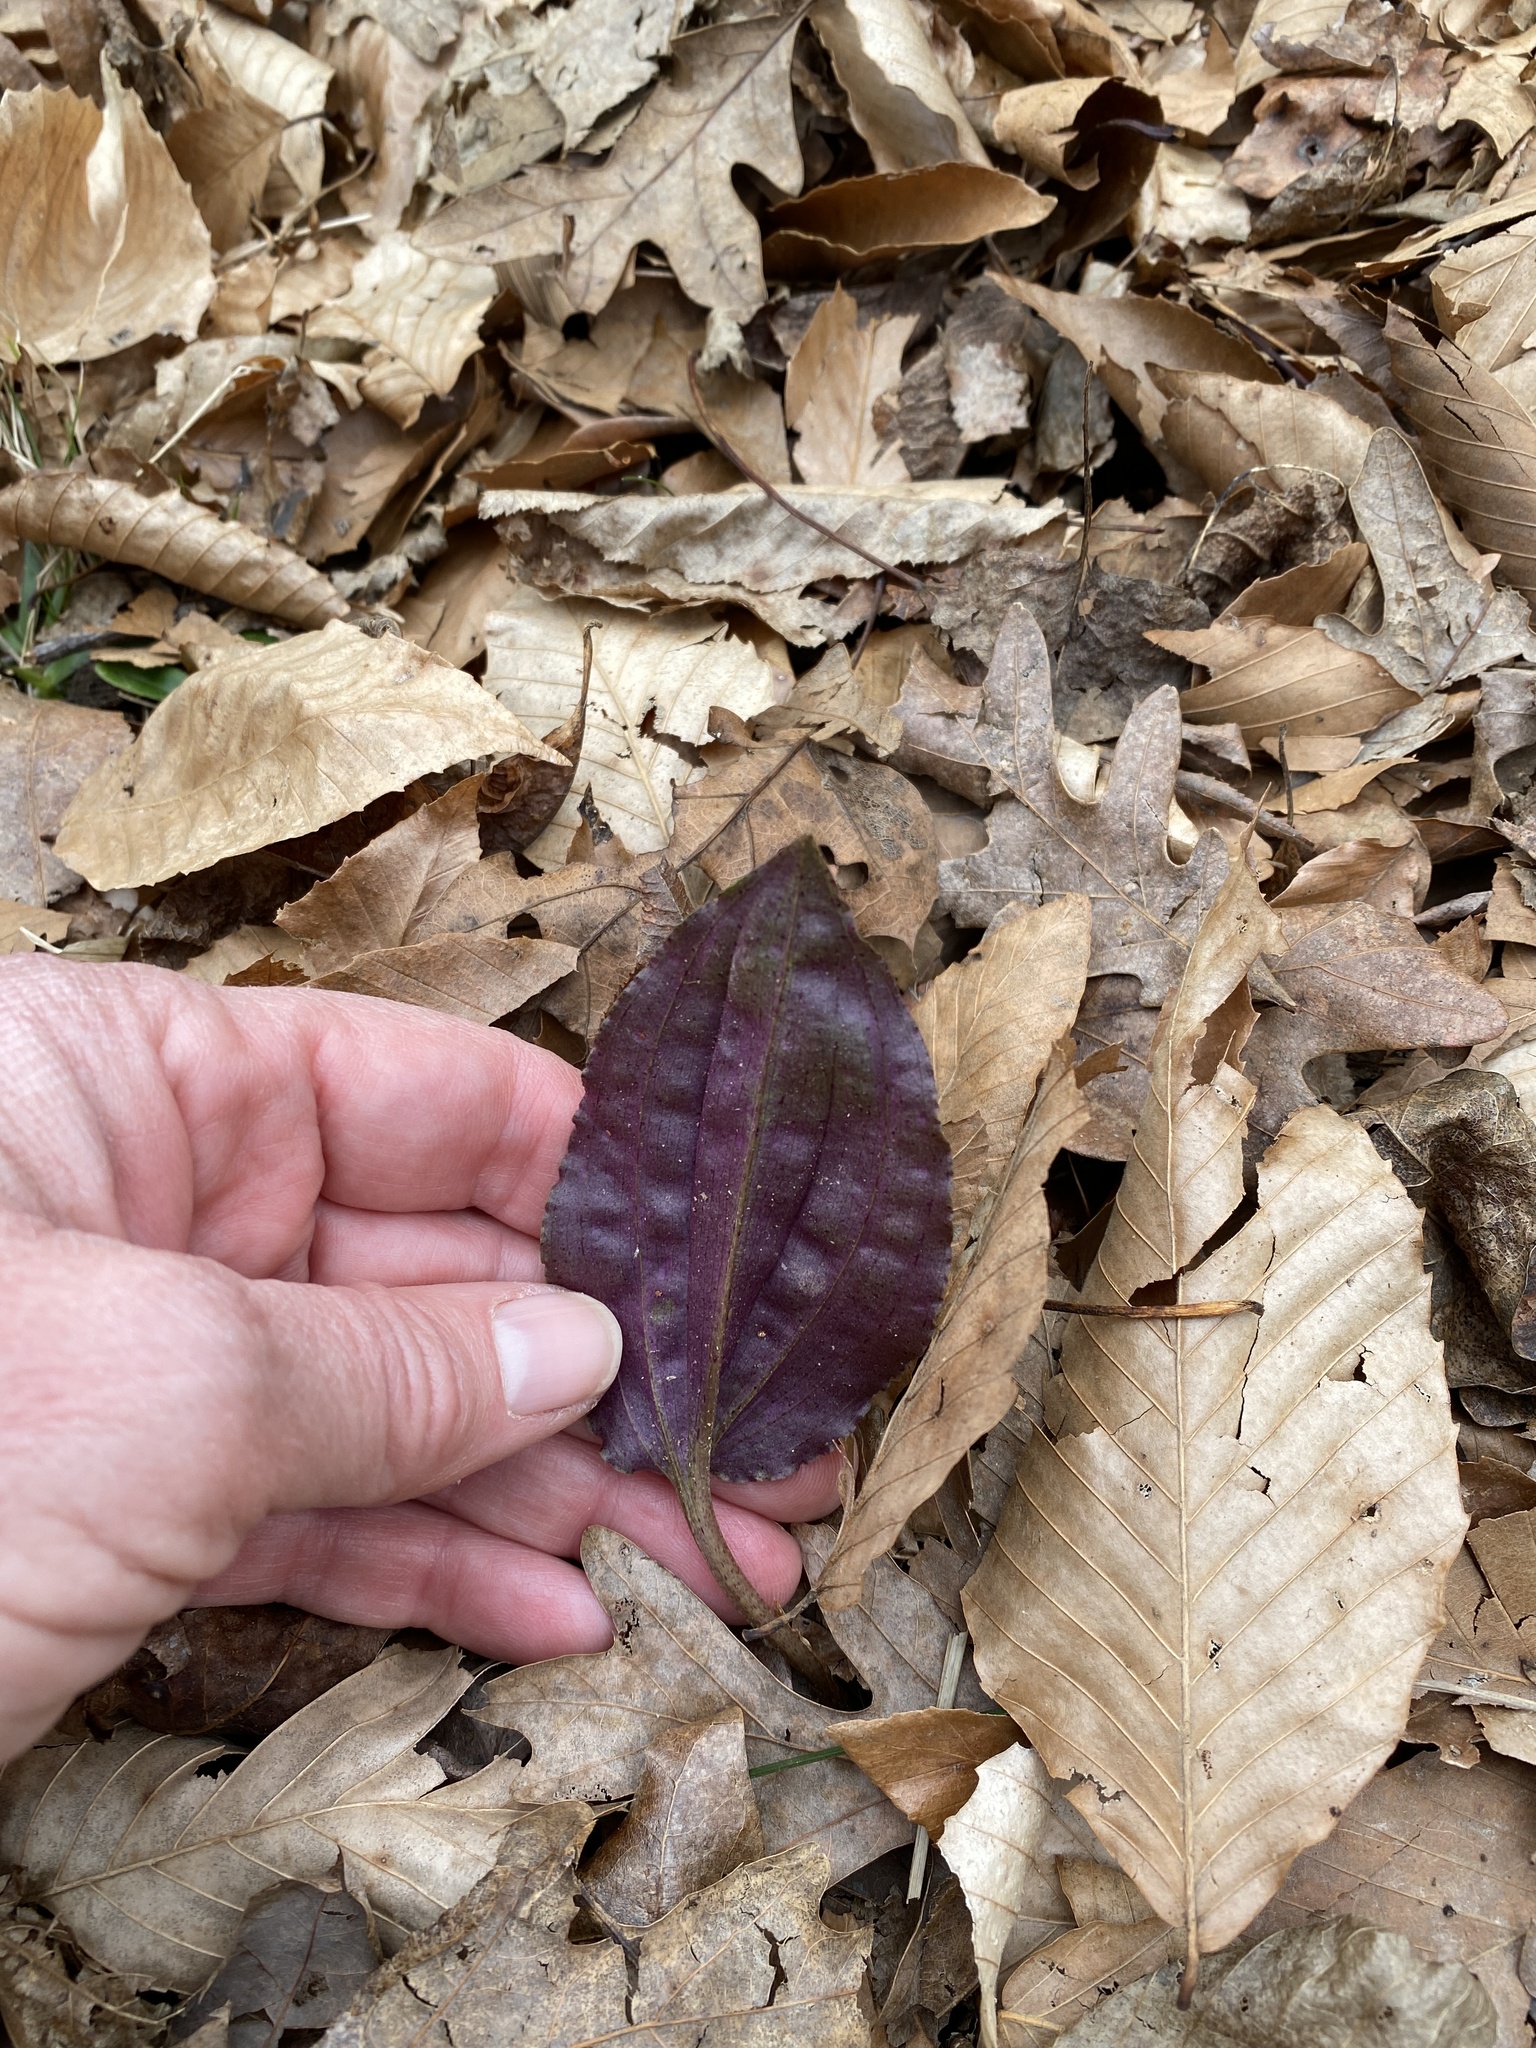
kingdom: Plantae
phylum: Tracheophyta
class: Liliopsida
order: Asparagales
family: Orchidaceae
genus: Tipularia
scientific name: Tipularia discolor
